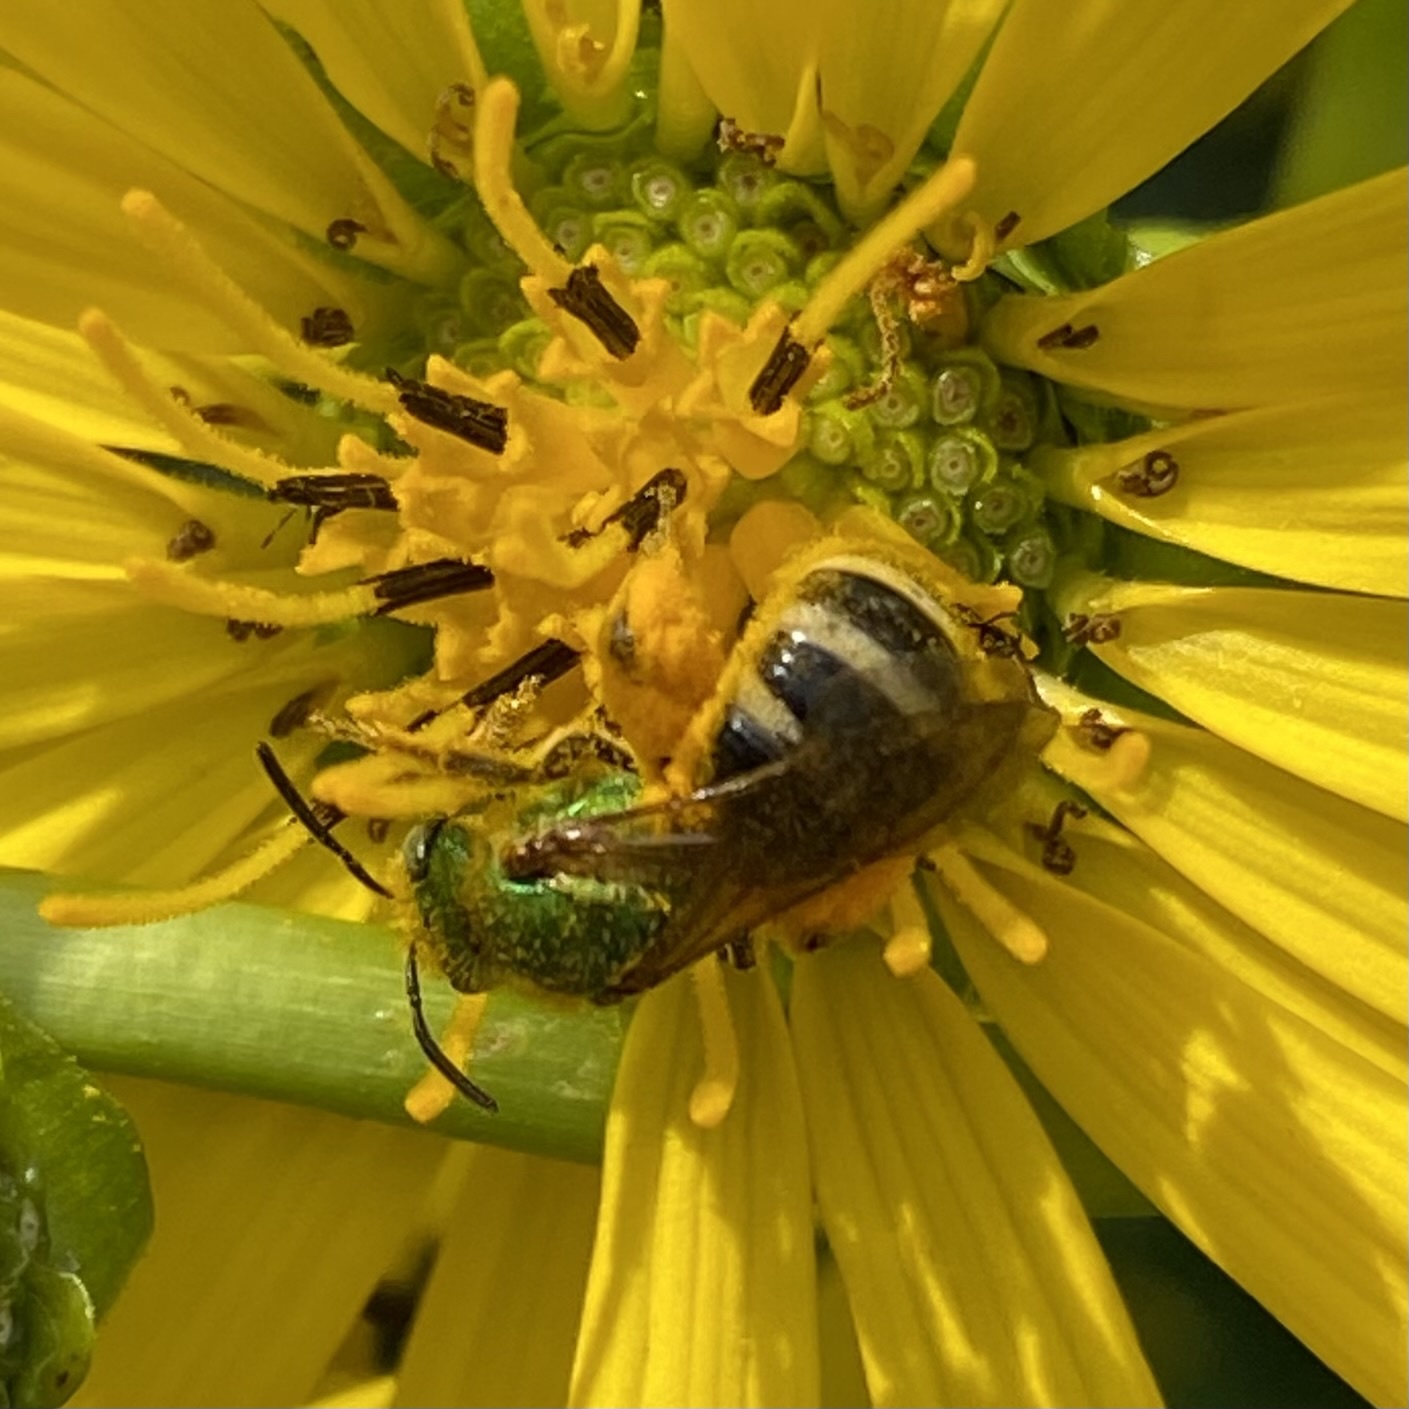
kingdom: Animalia
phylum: Arthropoda
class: Insecta
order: Hymenoptera
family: Halictidae
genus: Agapostemon
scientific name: Agapostemon virescens
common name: Bicolored striped sweat bee
